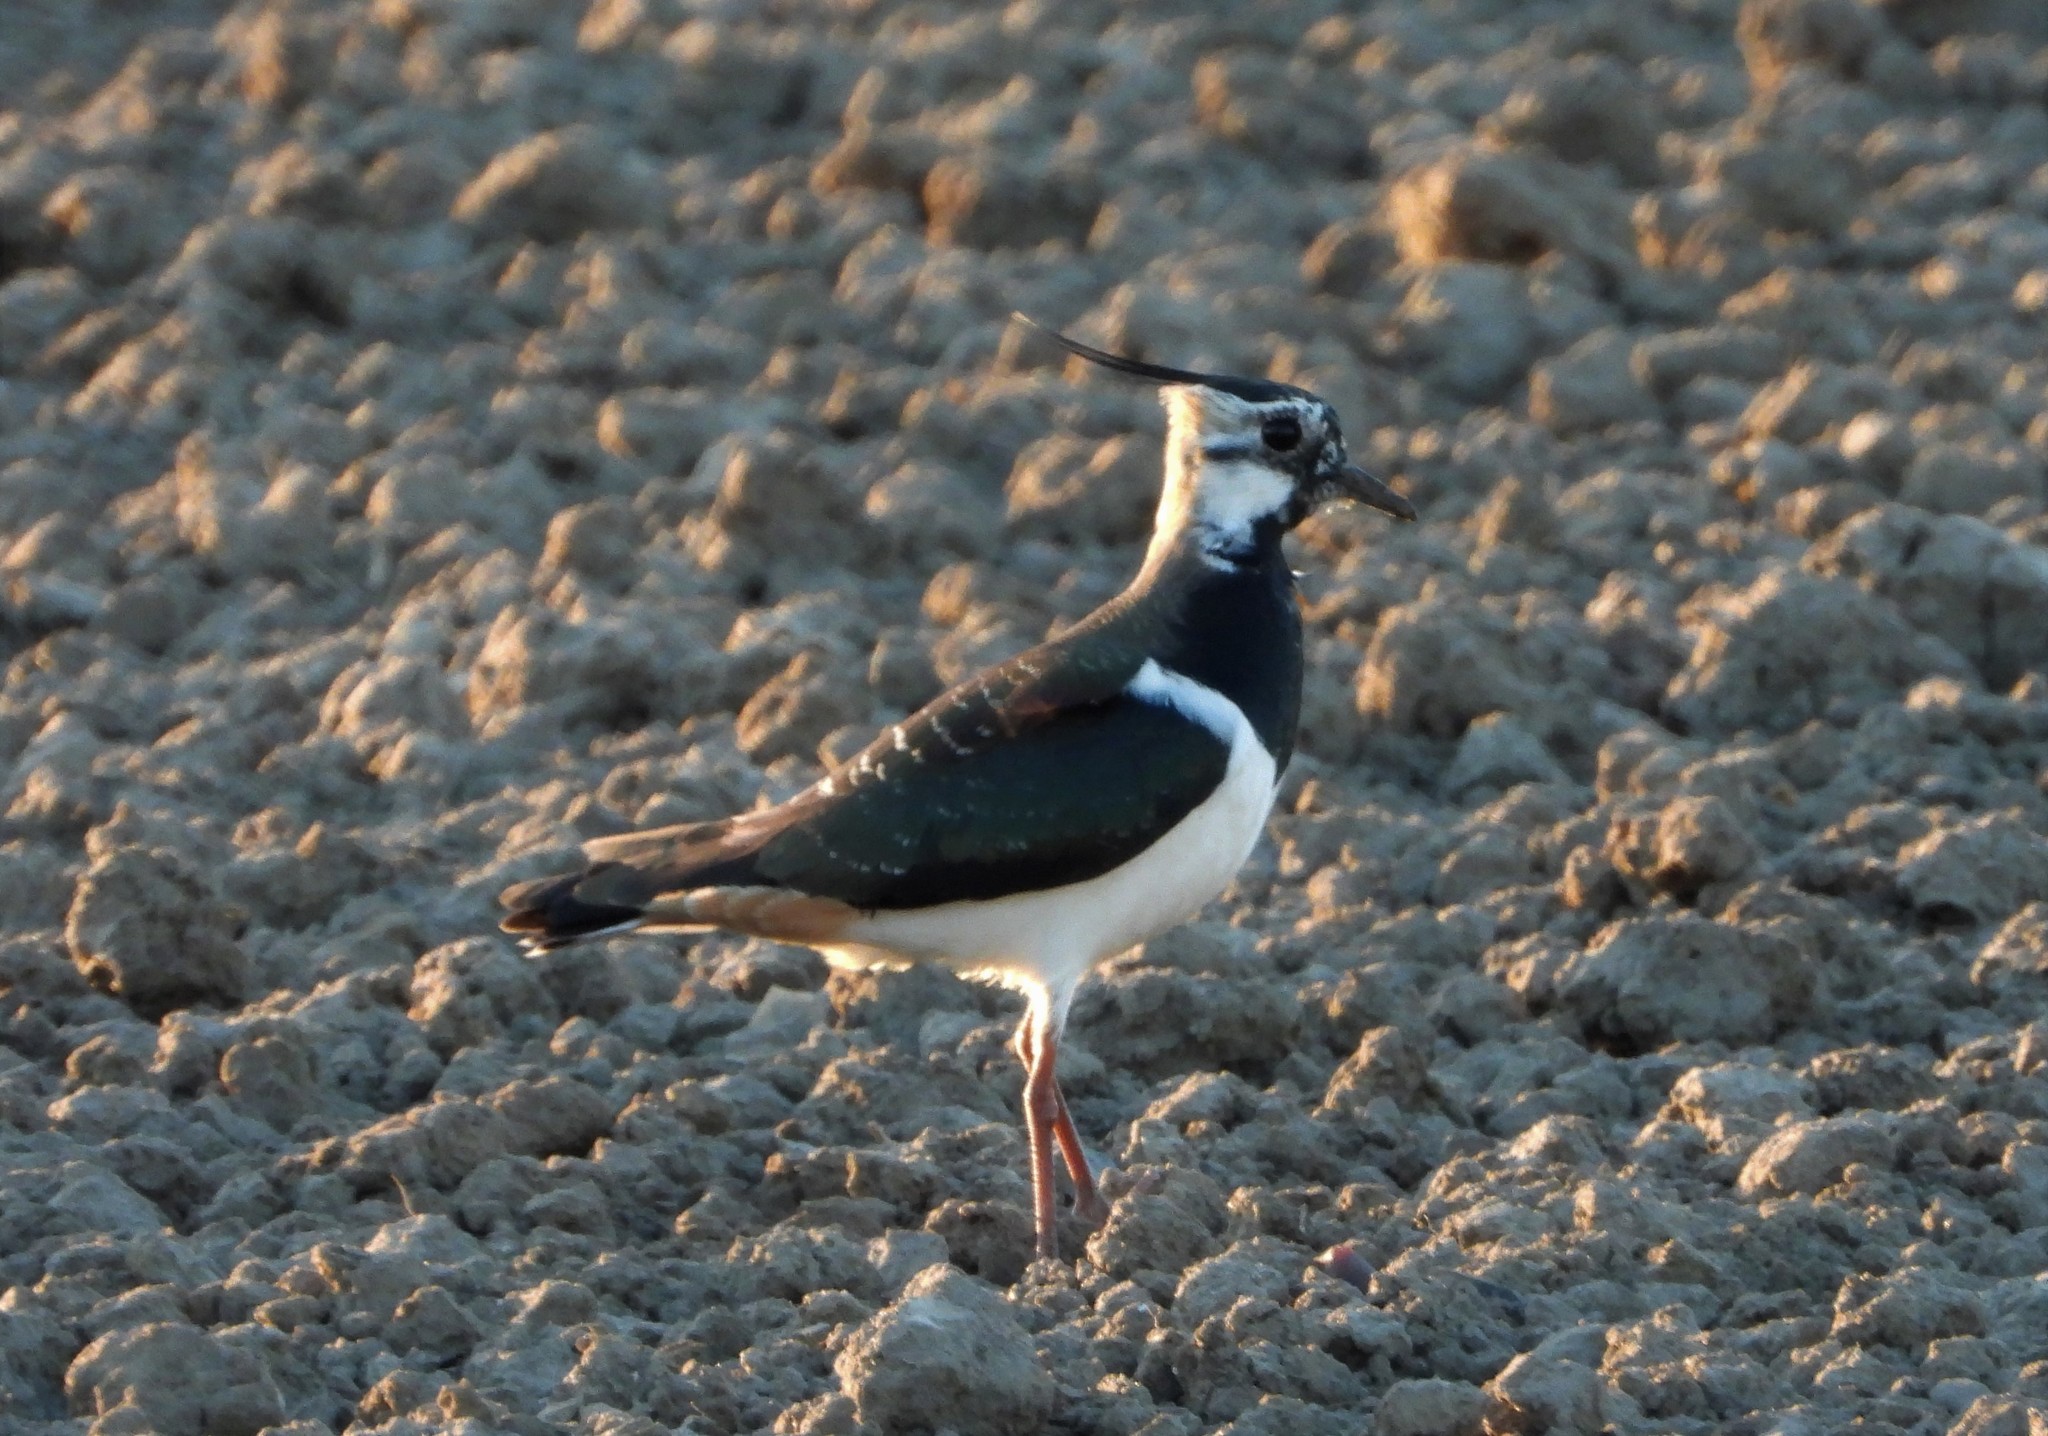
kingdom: Animalia
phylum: Chordata
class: Aves
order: Charadriiformes
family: Charadriidae
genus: Vanellus
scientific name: Vanellus vanellus
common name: Northern lapwing
